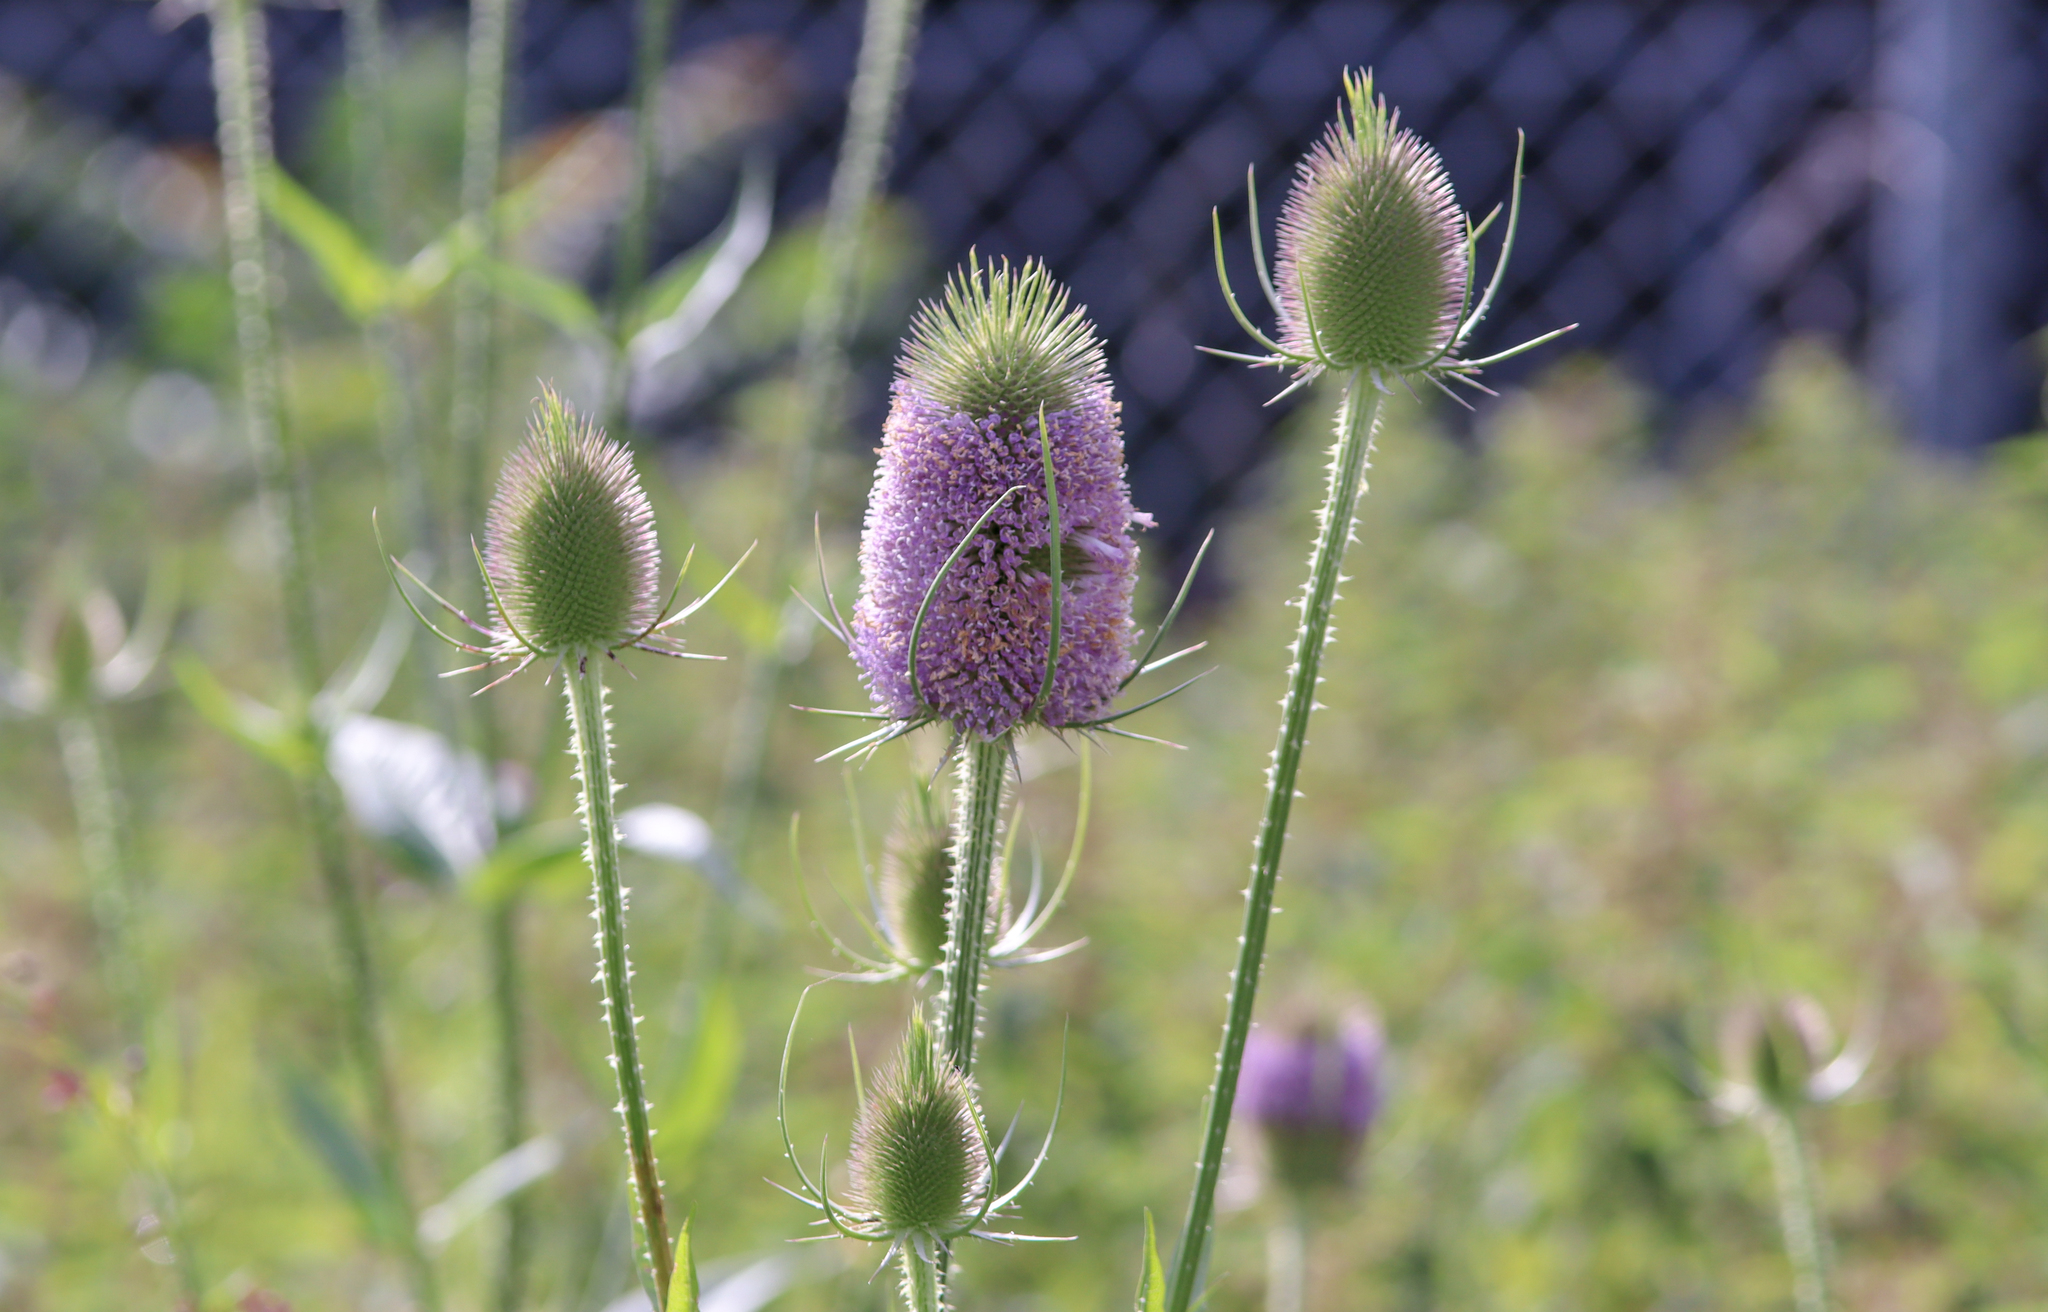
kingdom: Plantae
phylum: Tracheophyta
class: Magnoliopsida
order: Dipsacales
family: Caprifoliaceae
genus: Dipsacus
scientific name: Dipsacus fullonum
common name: Teasel
